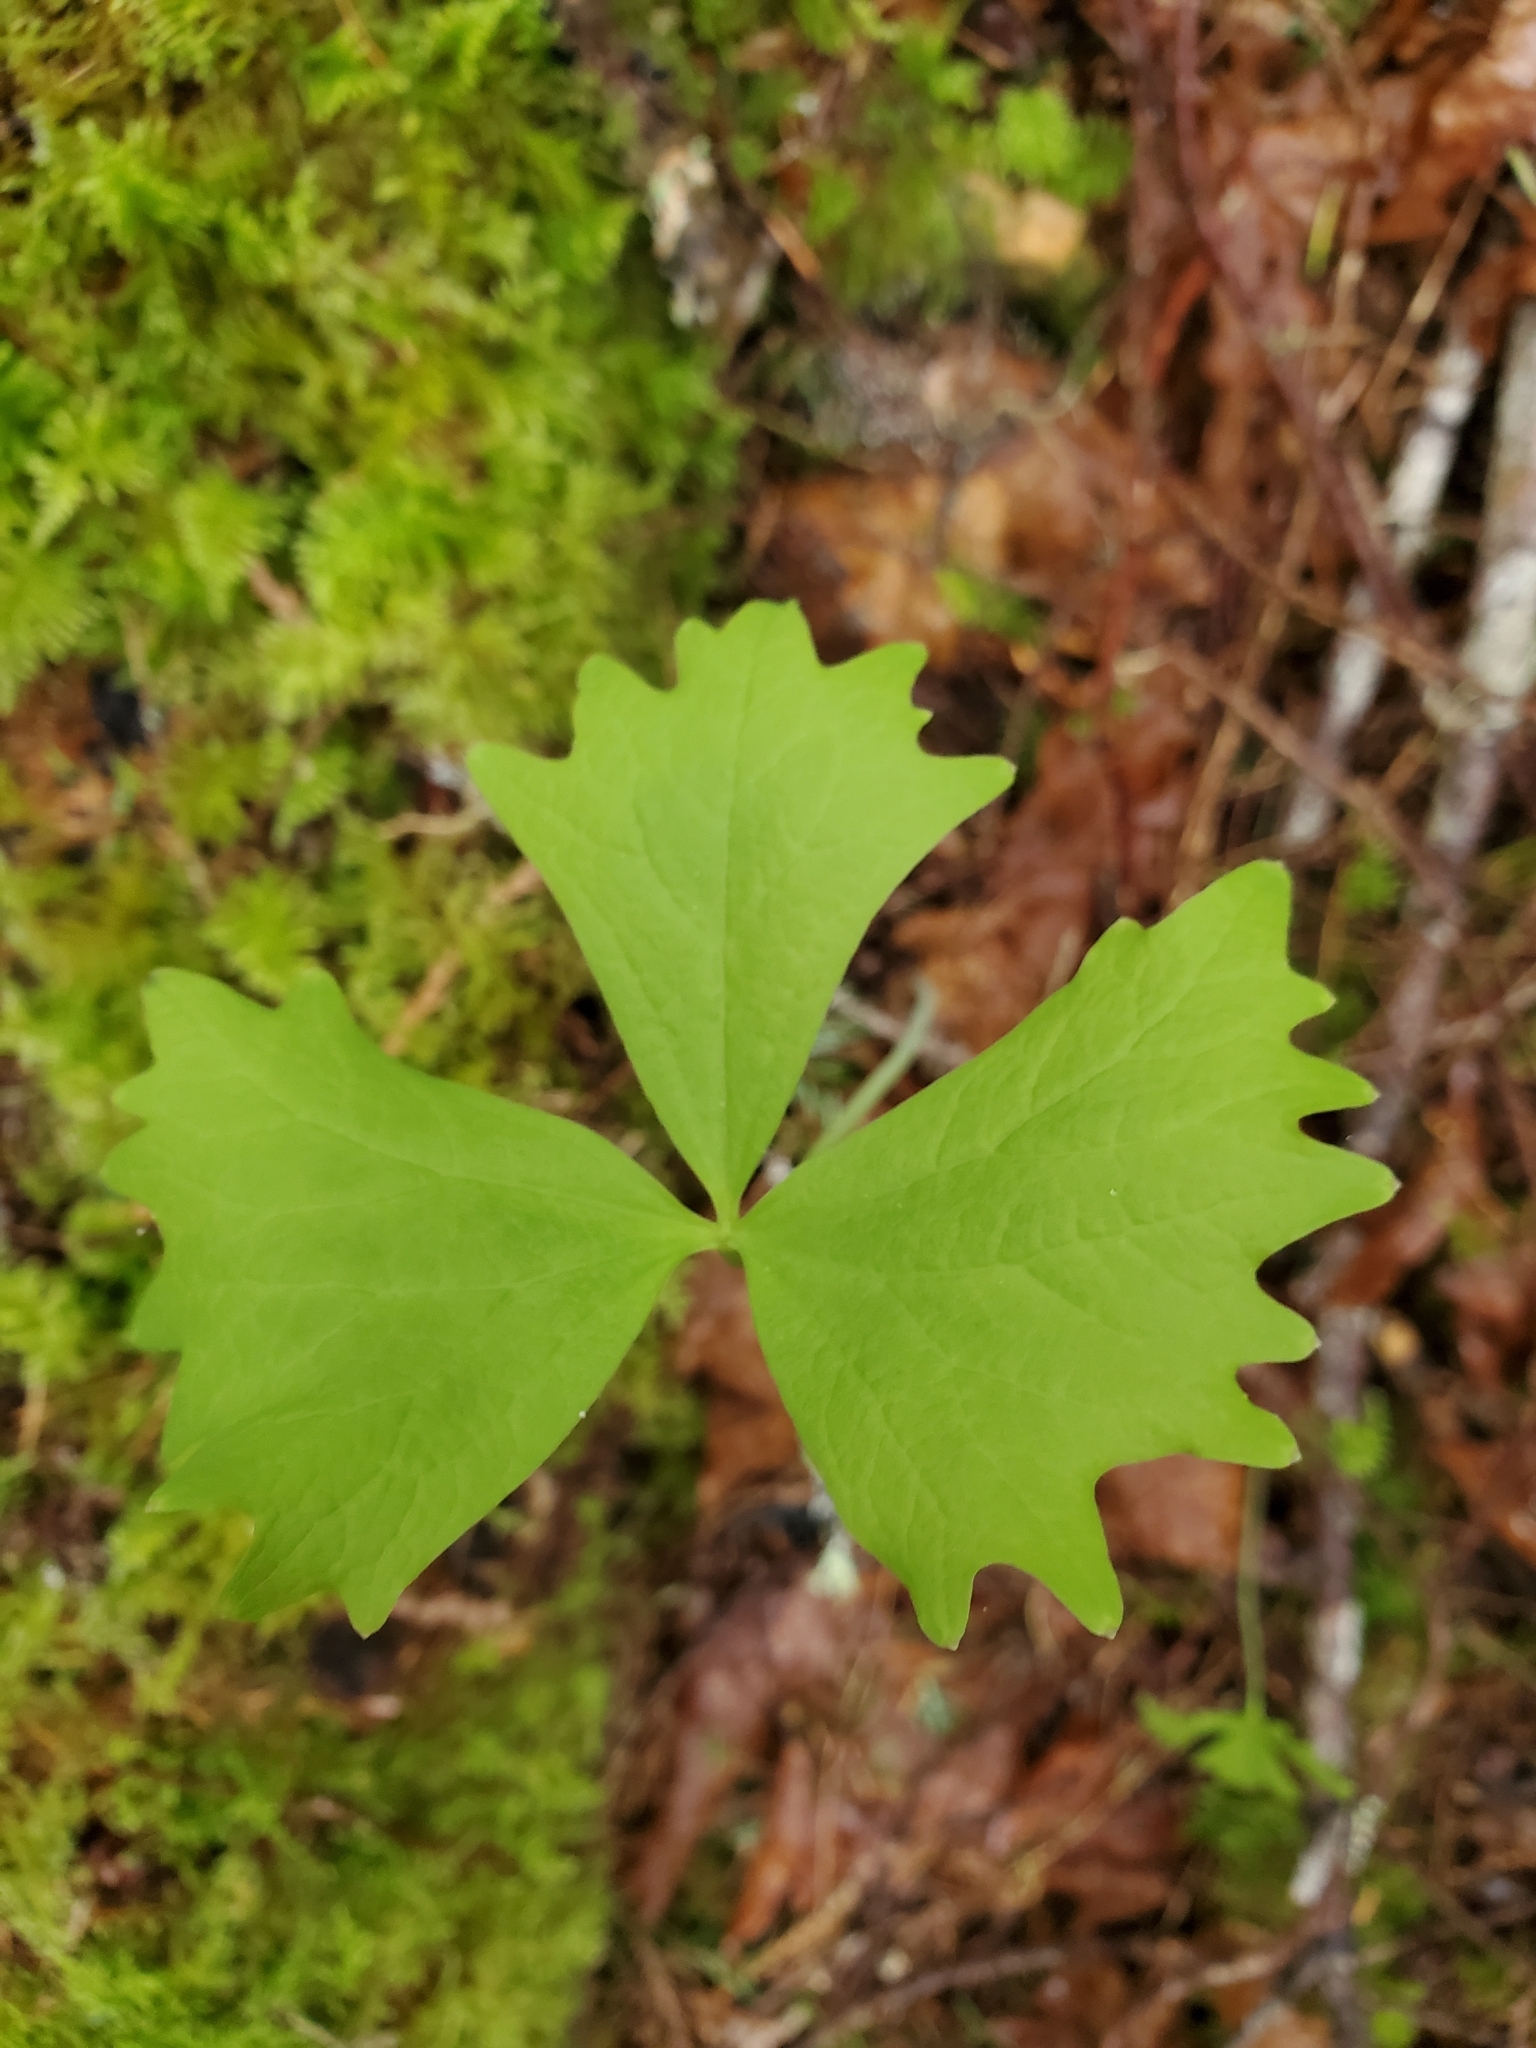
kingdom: Plantae
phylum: Tracheophyta
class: Magnoliopsida
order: Ranunculales
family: Berberidaceae
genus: Achlys
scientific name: Achlys triphylla
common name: Vanilla-leaf
